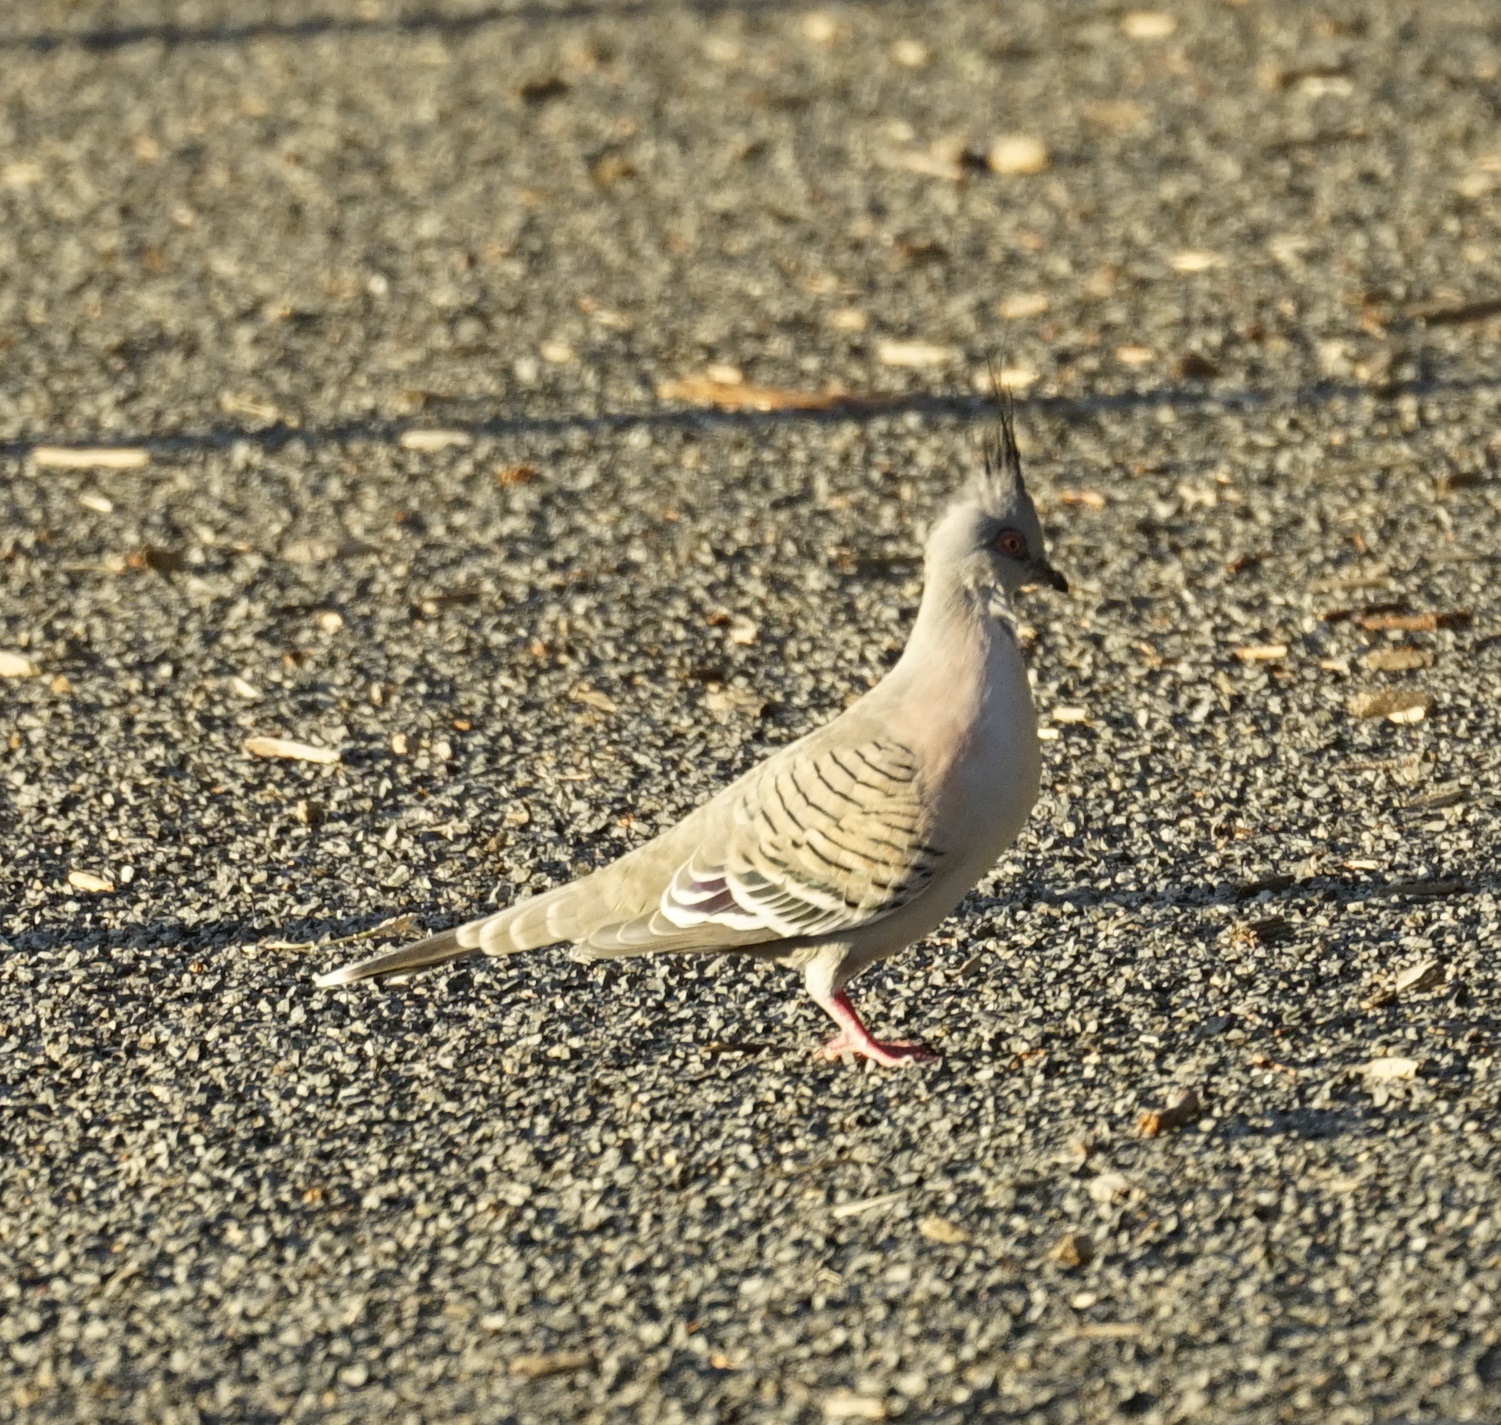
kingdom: Animalia
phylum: Chordata
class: Aves
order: Columbiformes
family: Columbidae
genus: Ocyphaps
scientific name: Ocyphaps lophotes
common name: Crested pigeon
